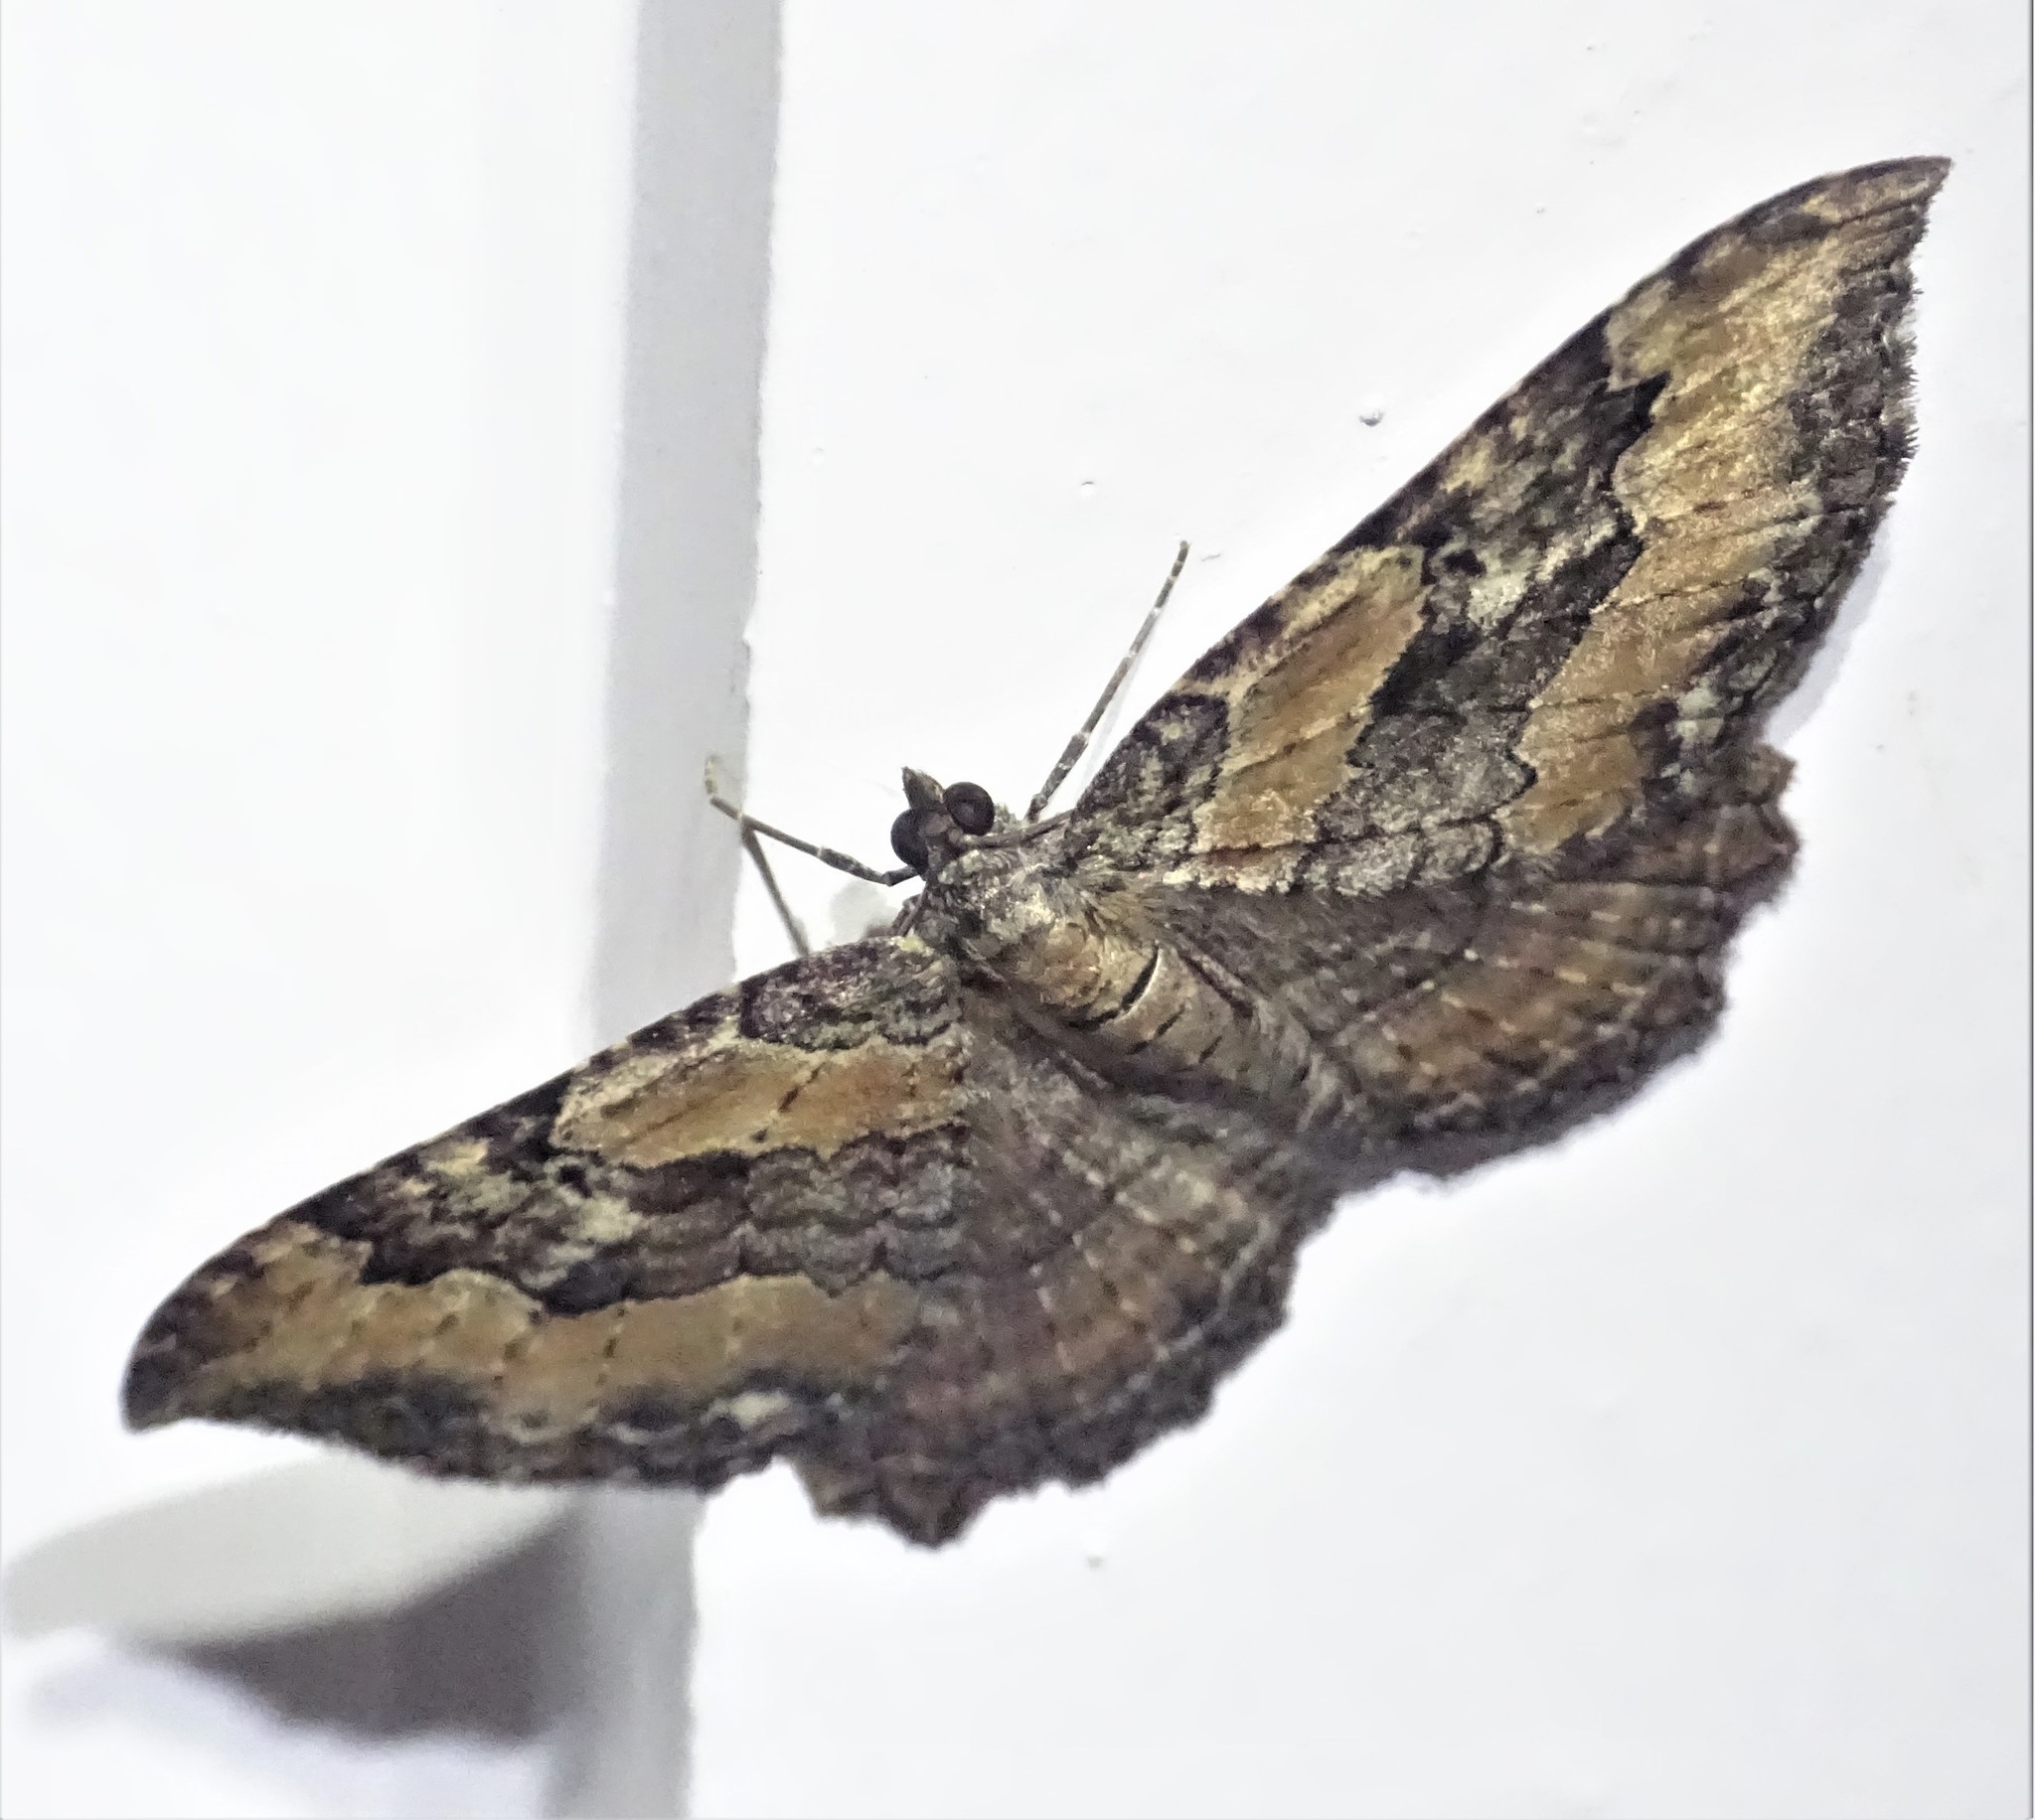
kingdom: Animalia
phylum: Arthropoda
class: Insecta
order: Lepidoptera
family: Geometridae
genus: Rheumaptera
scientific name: Rheumaptera
